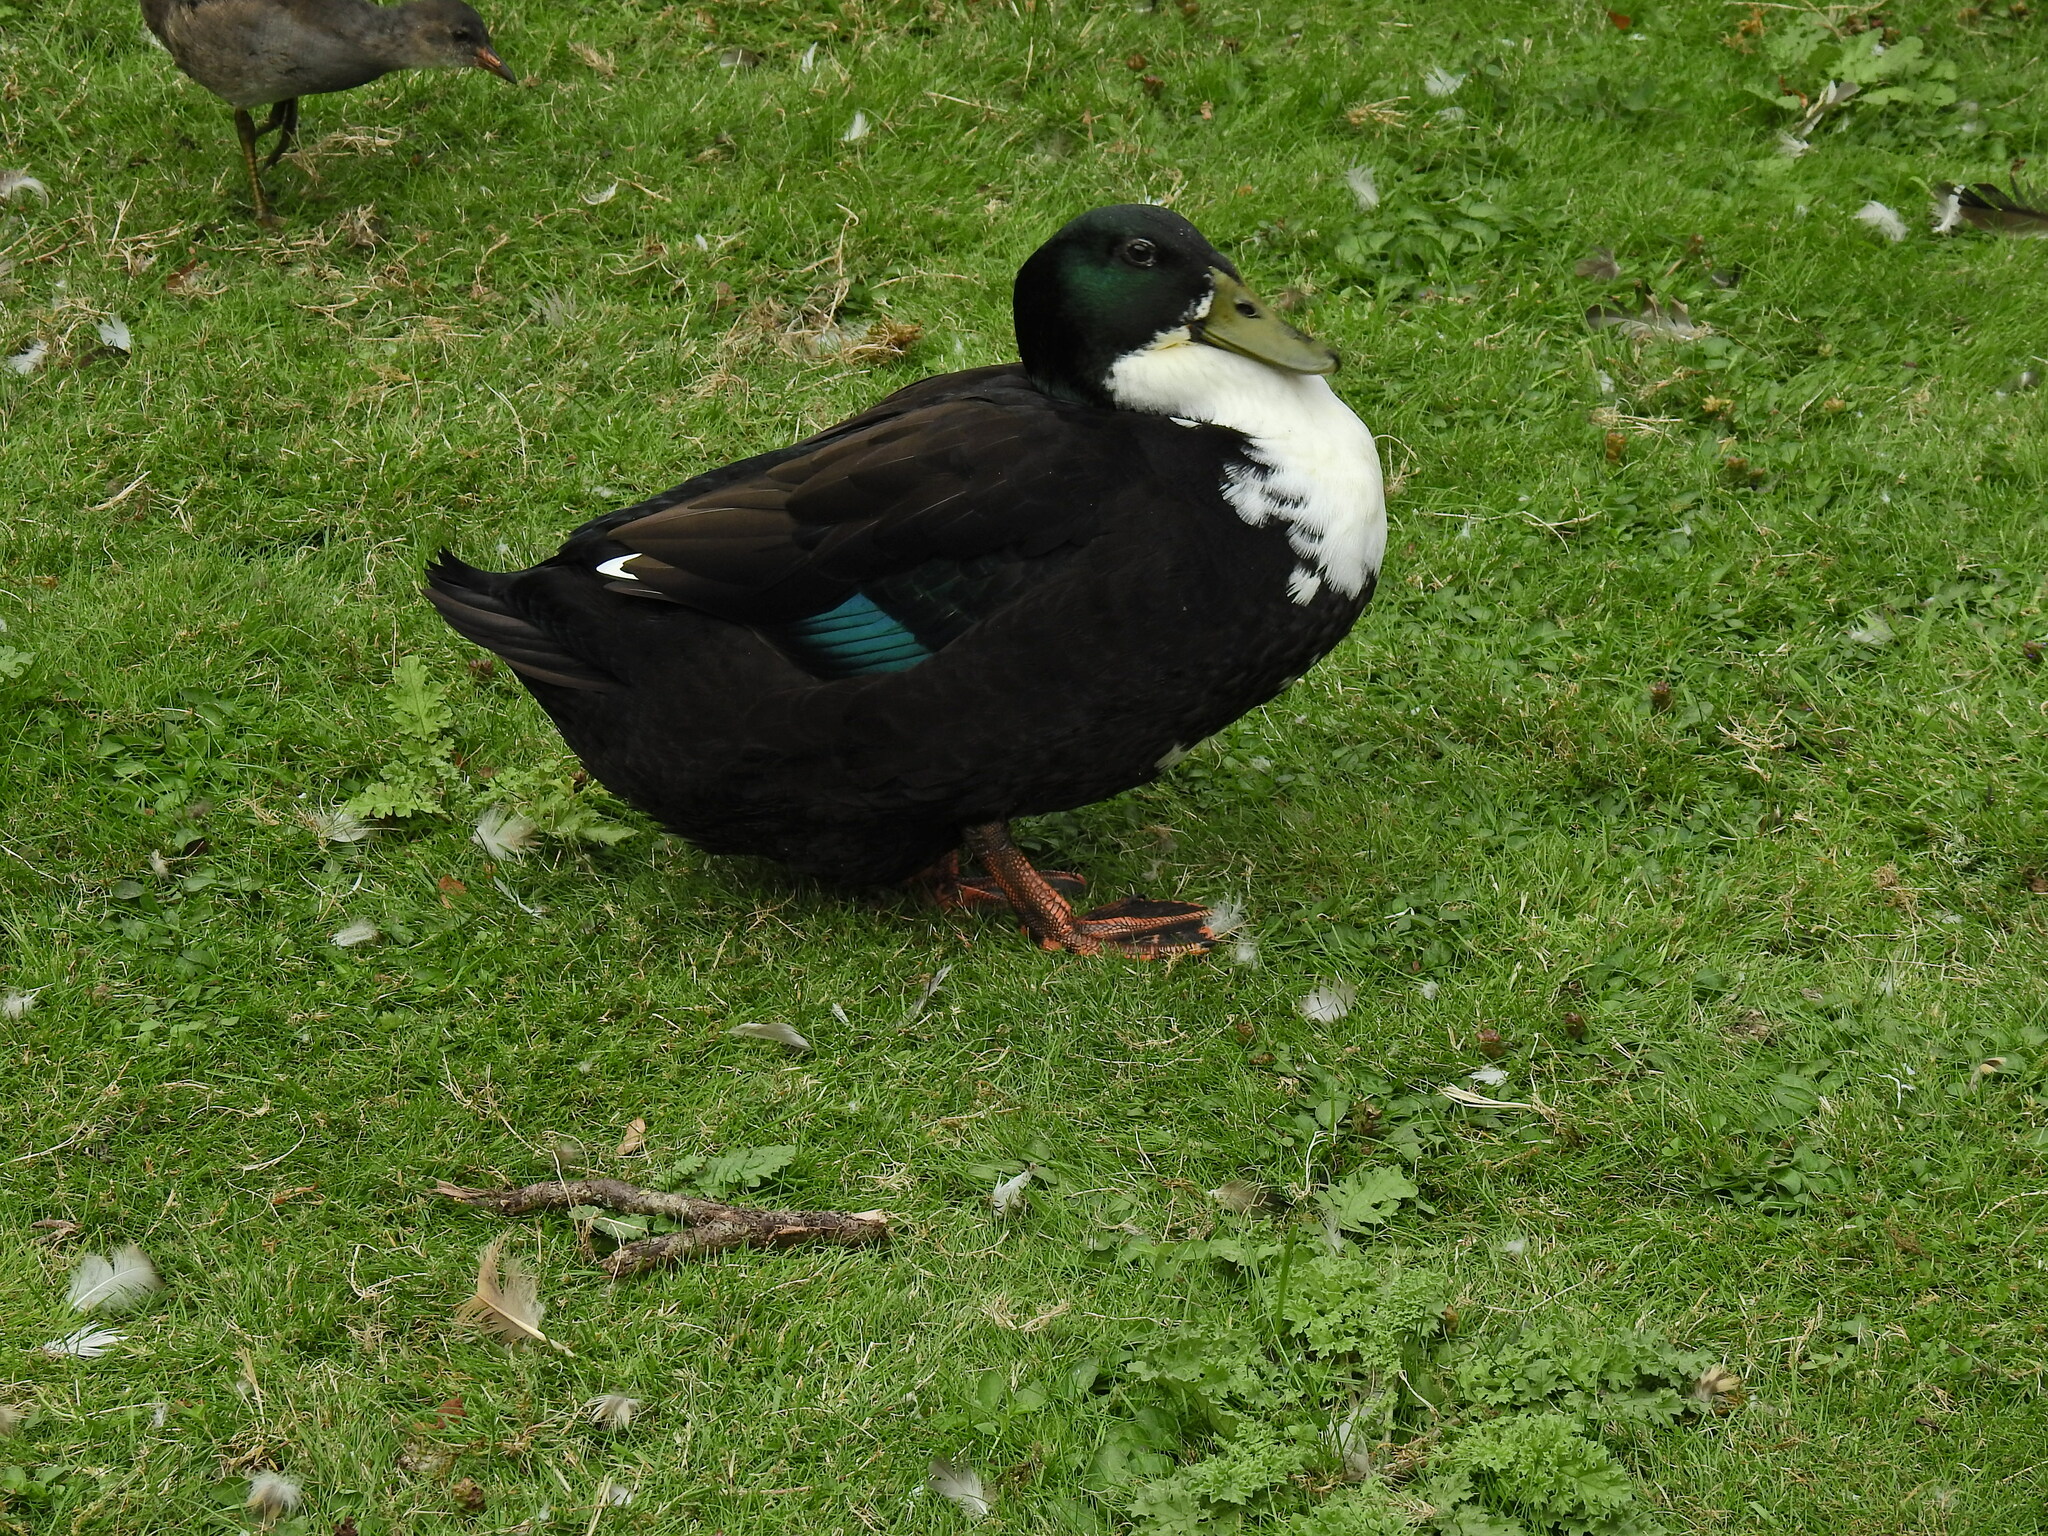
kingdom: Animalia
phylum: Chordata
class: Aves
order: Anseriformes
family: Anatidae
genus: Anas
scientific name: Anas platyrhynchos
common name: Mallard
